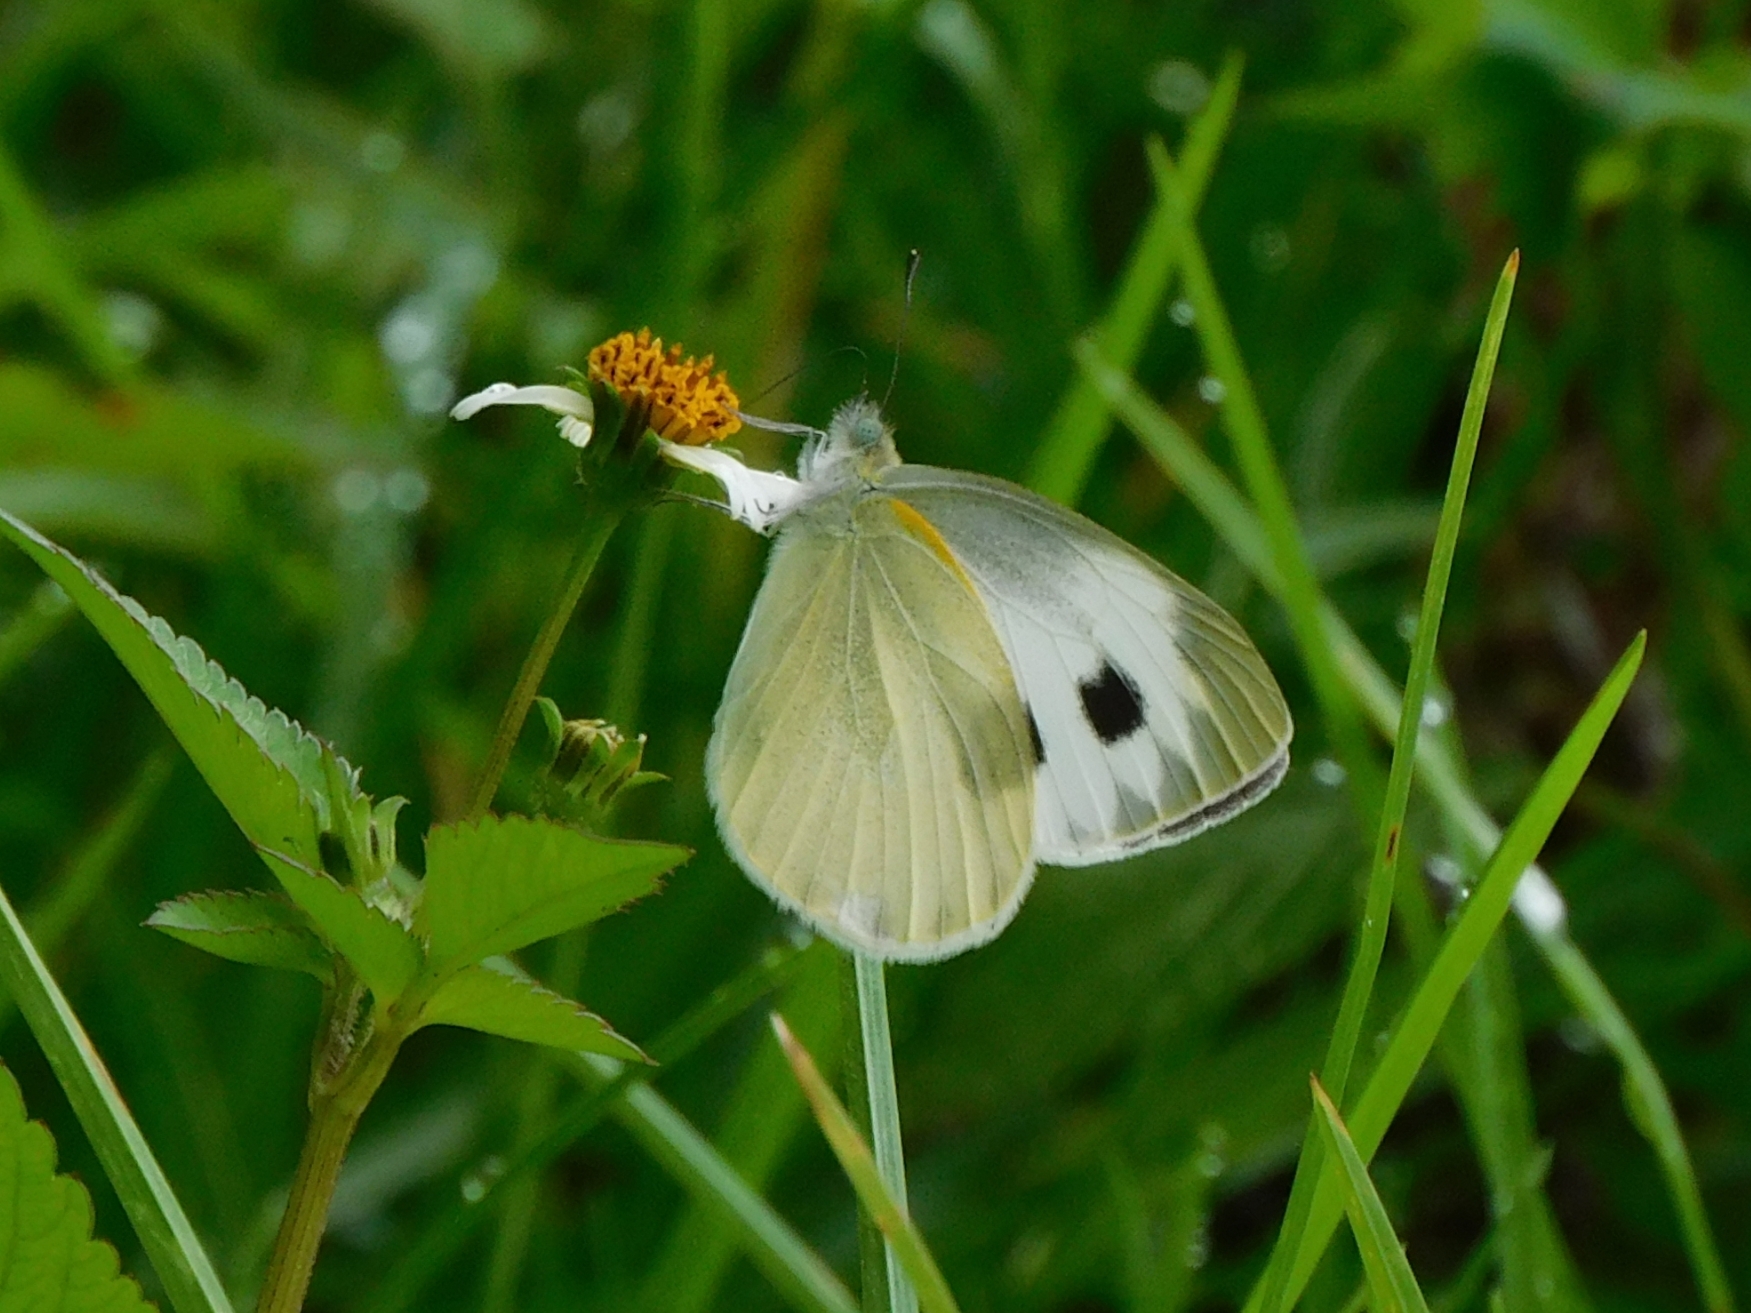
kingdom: Animalia
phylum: Arthropoda
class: Insecta
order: Lepidoptera
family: Pieridae
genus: Pieris
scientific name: Pieris canidia
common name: Indian cabbage white
